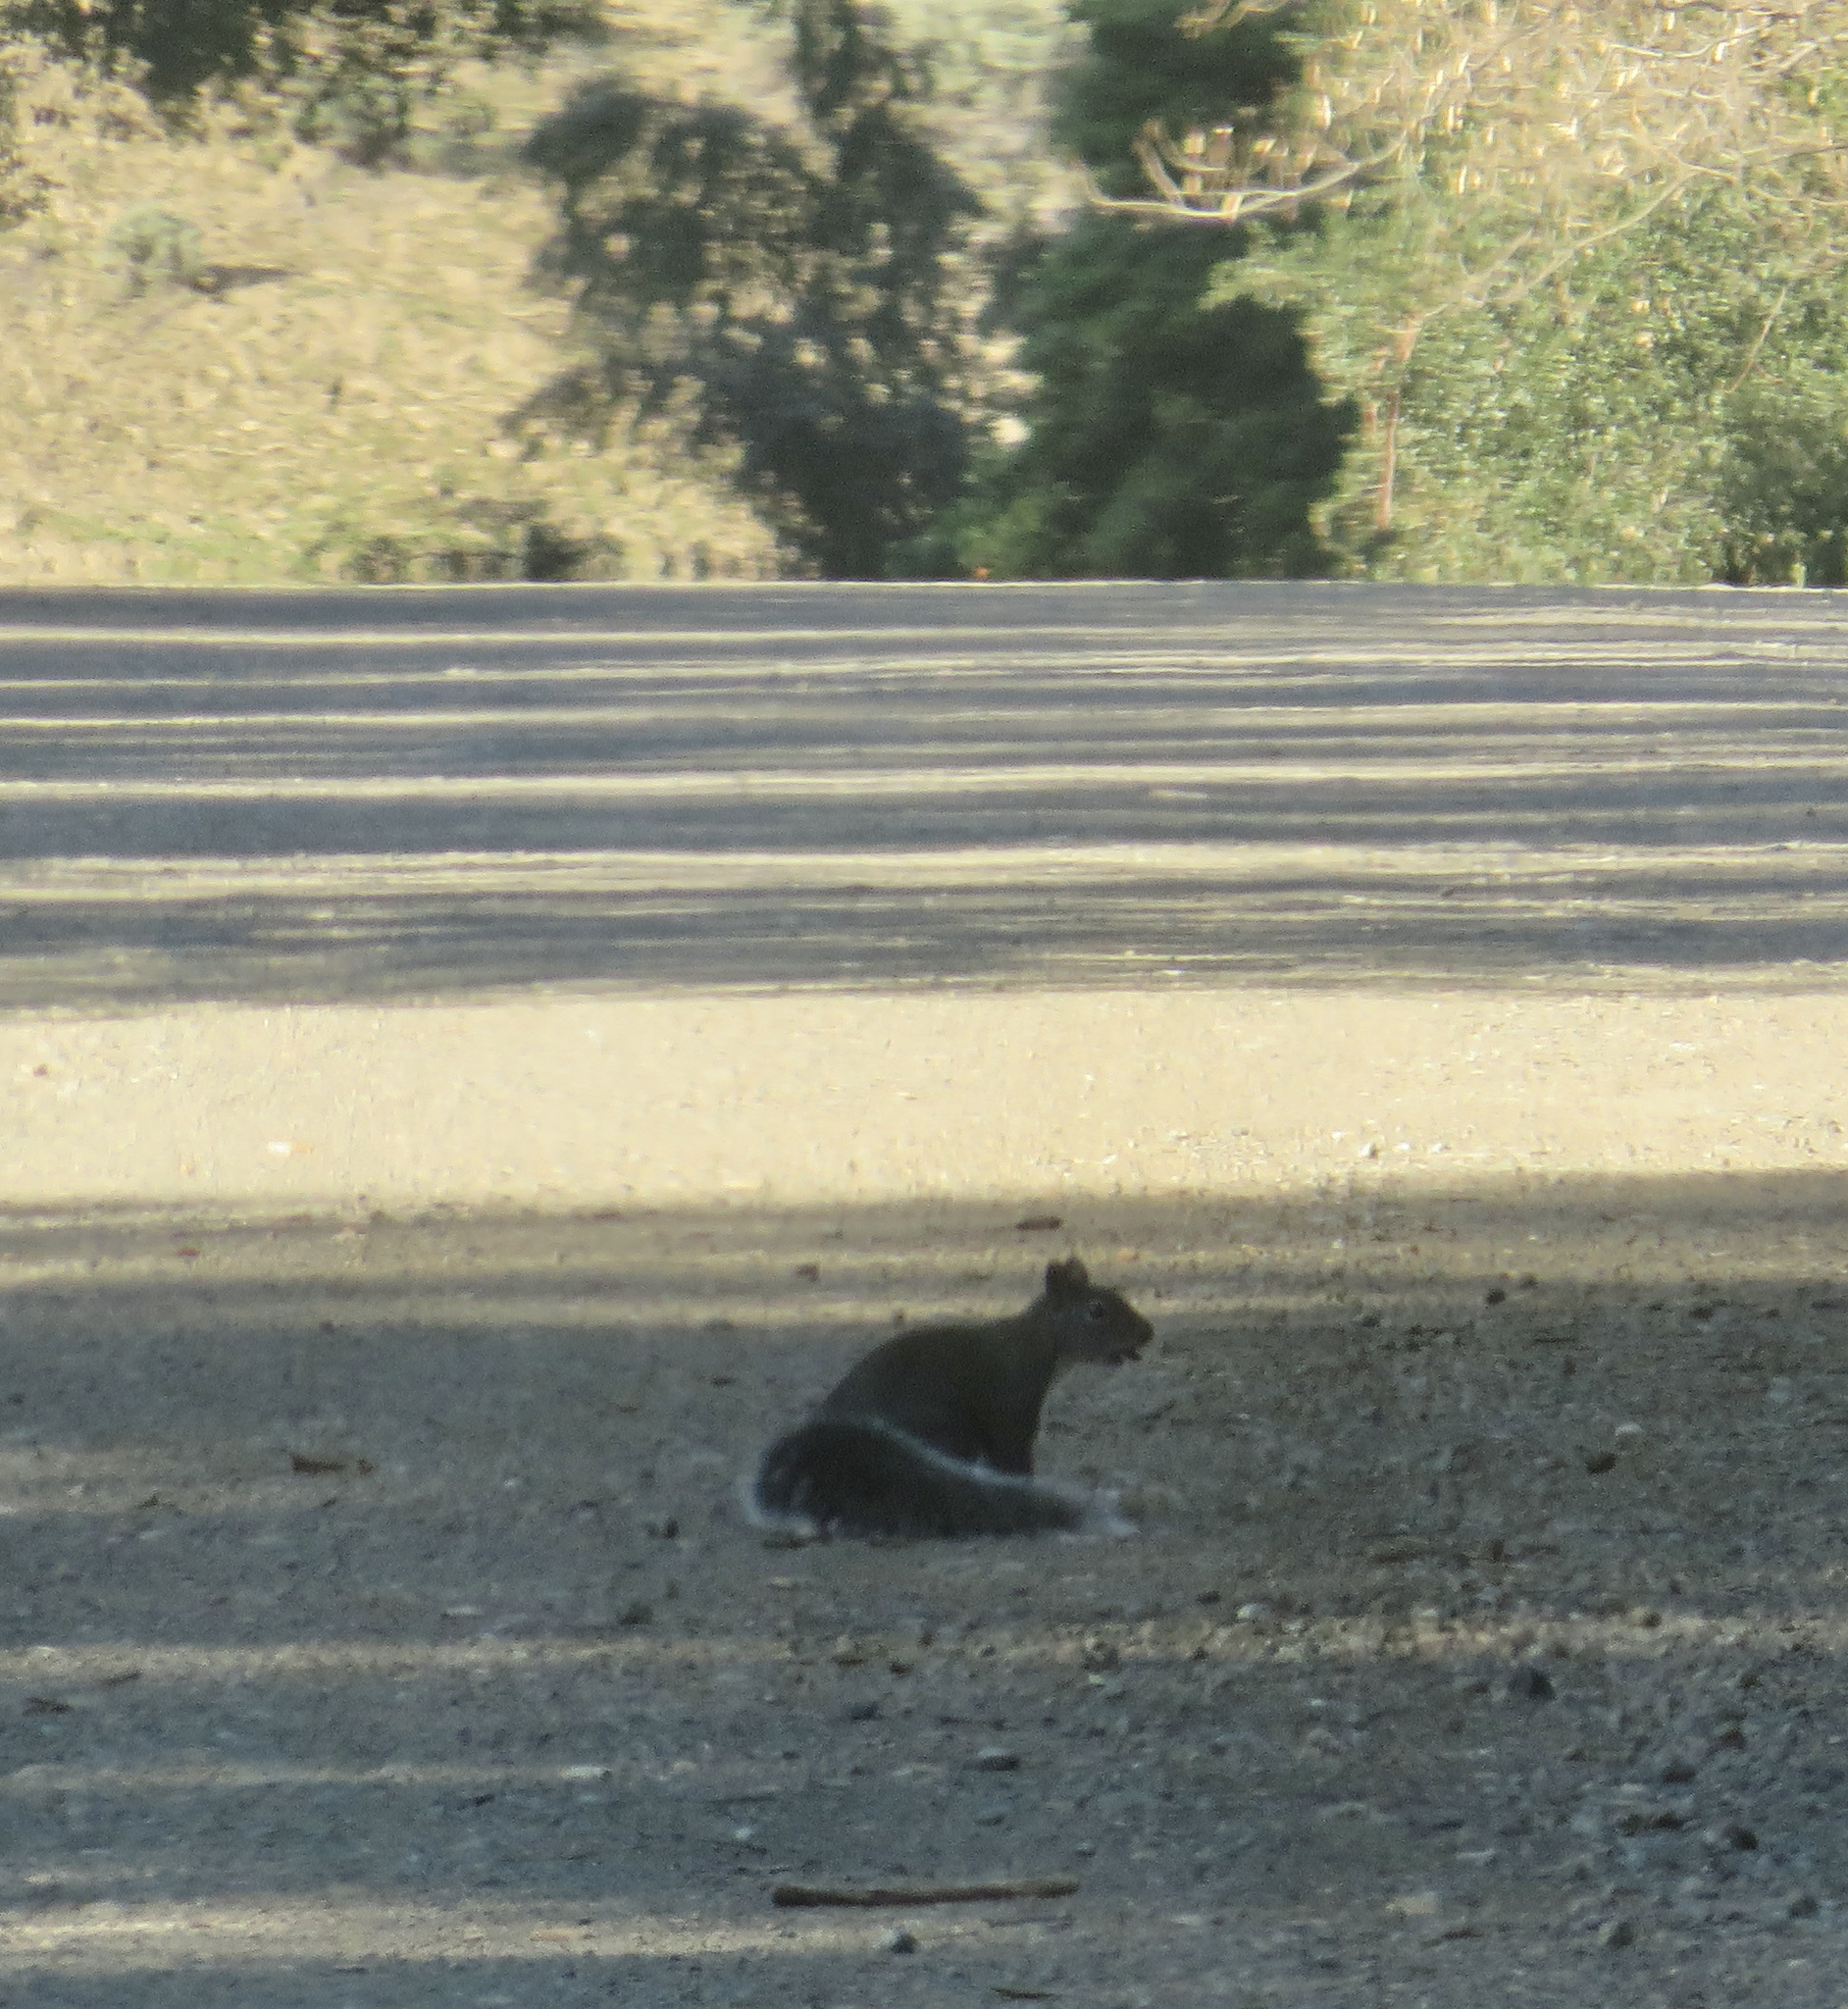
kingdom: Animalia
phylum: Chordata
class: Mammalia
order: Rodentia
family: Sciuridae
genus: Sciurus
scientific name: Sciurus griseus
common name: Western gray squirrel
